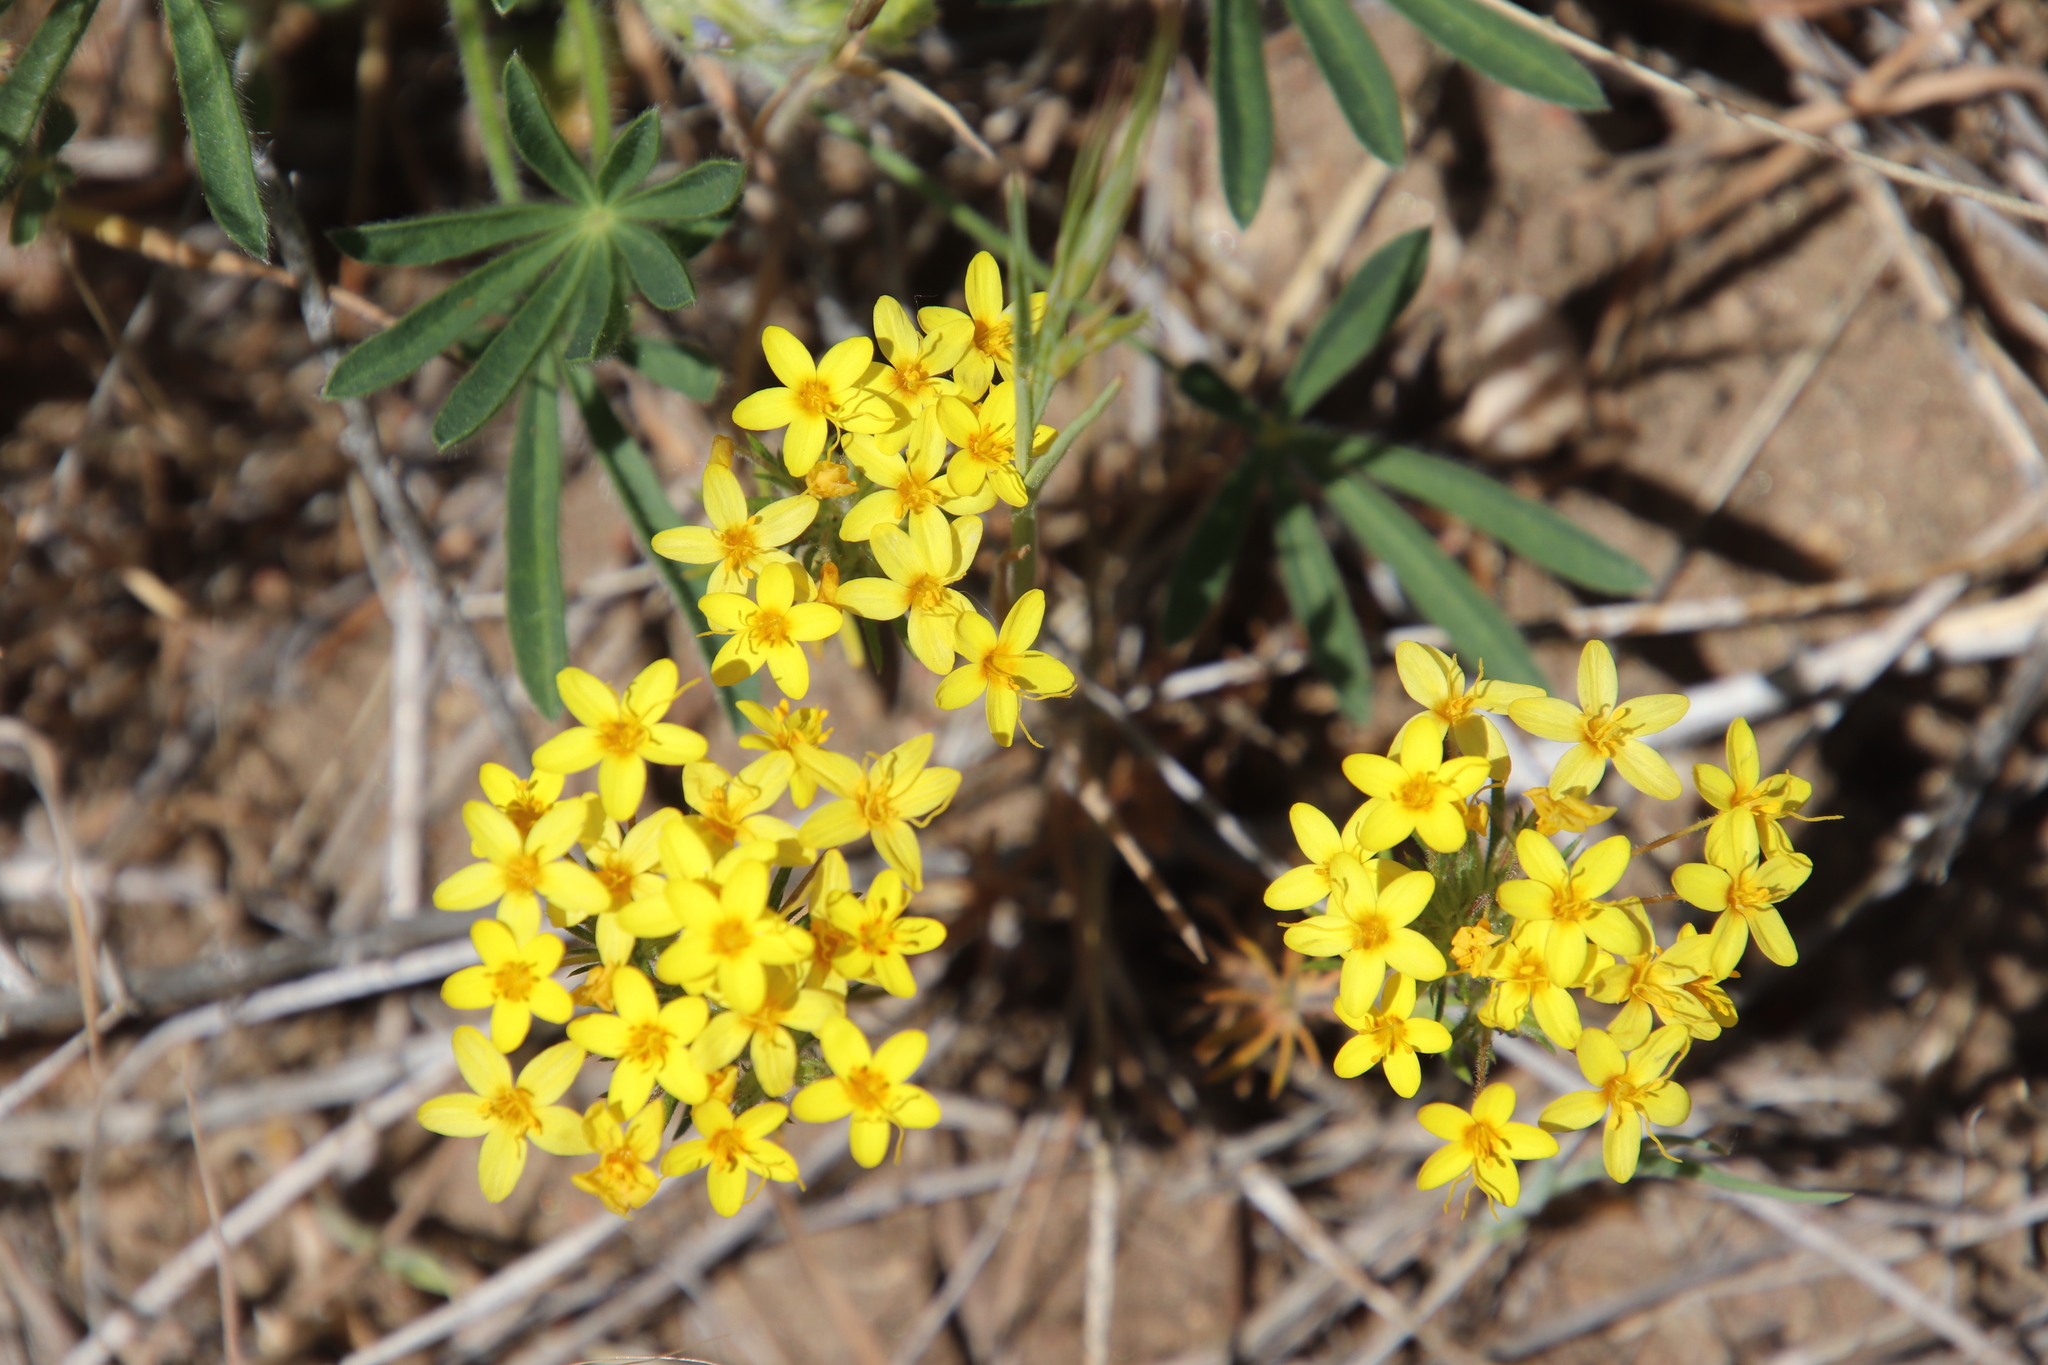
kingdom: Plantae
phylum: Tracheophyta
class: Magnoliopsida
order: Ericales
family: Polemoniaceae
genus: Leptosiphon
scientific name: Leptosiphon parviflorus
